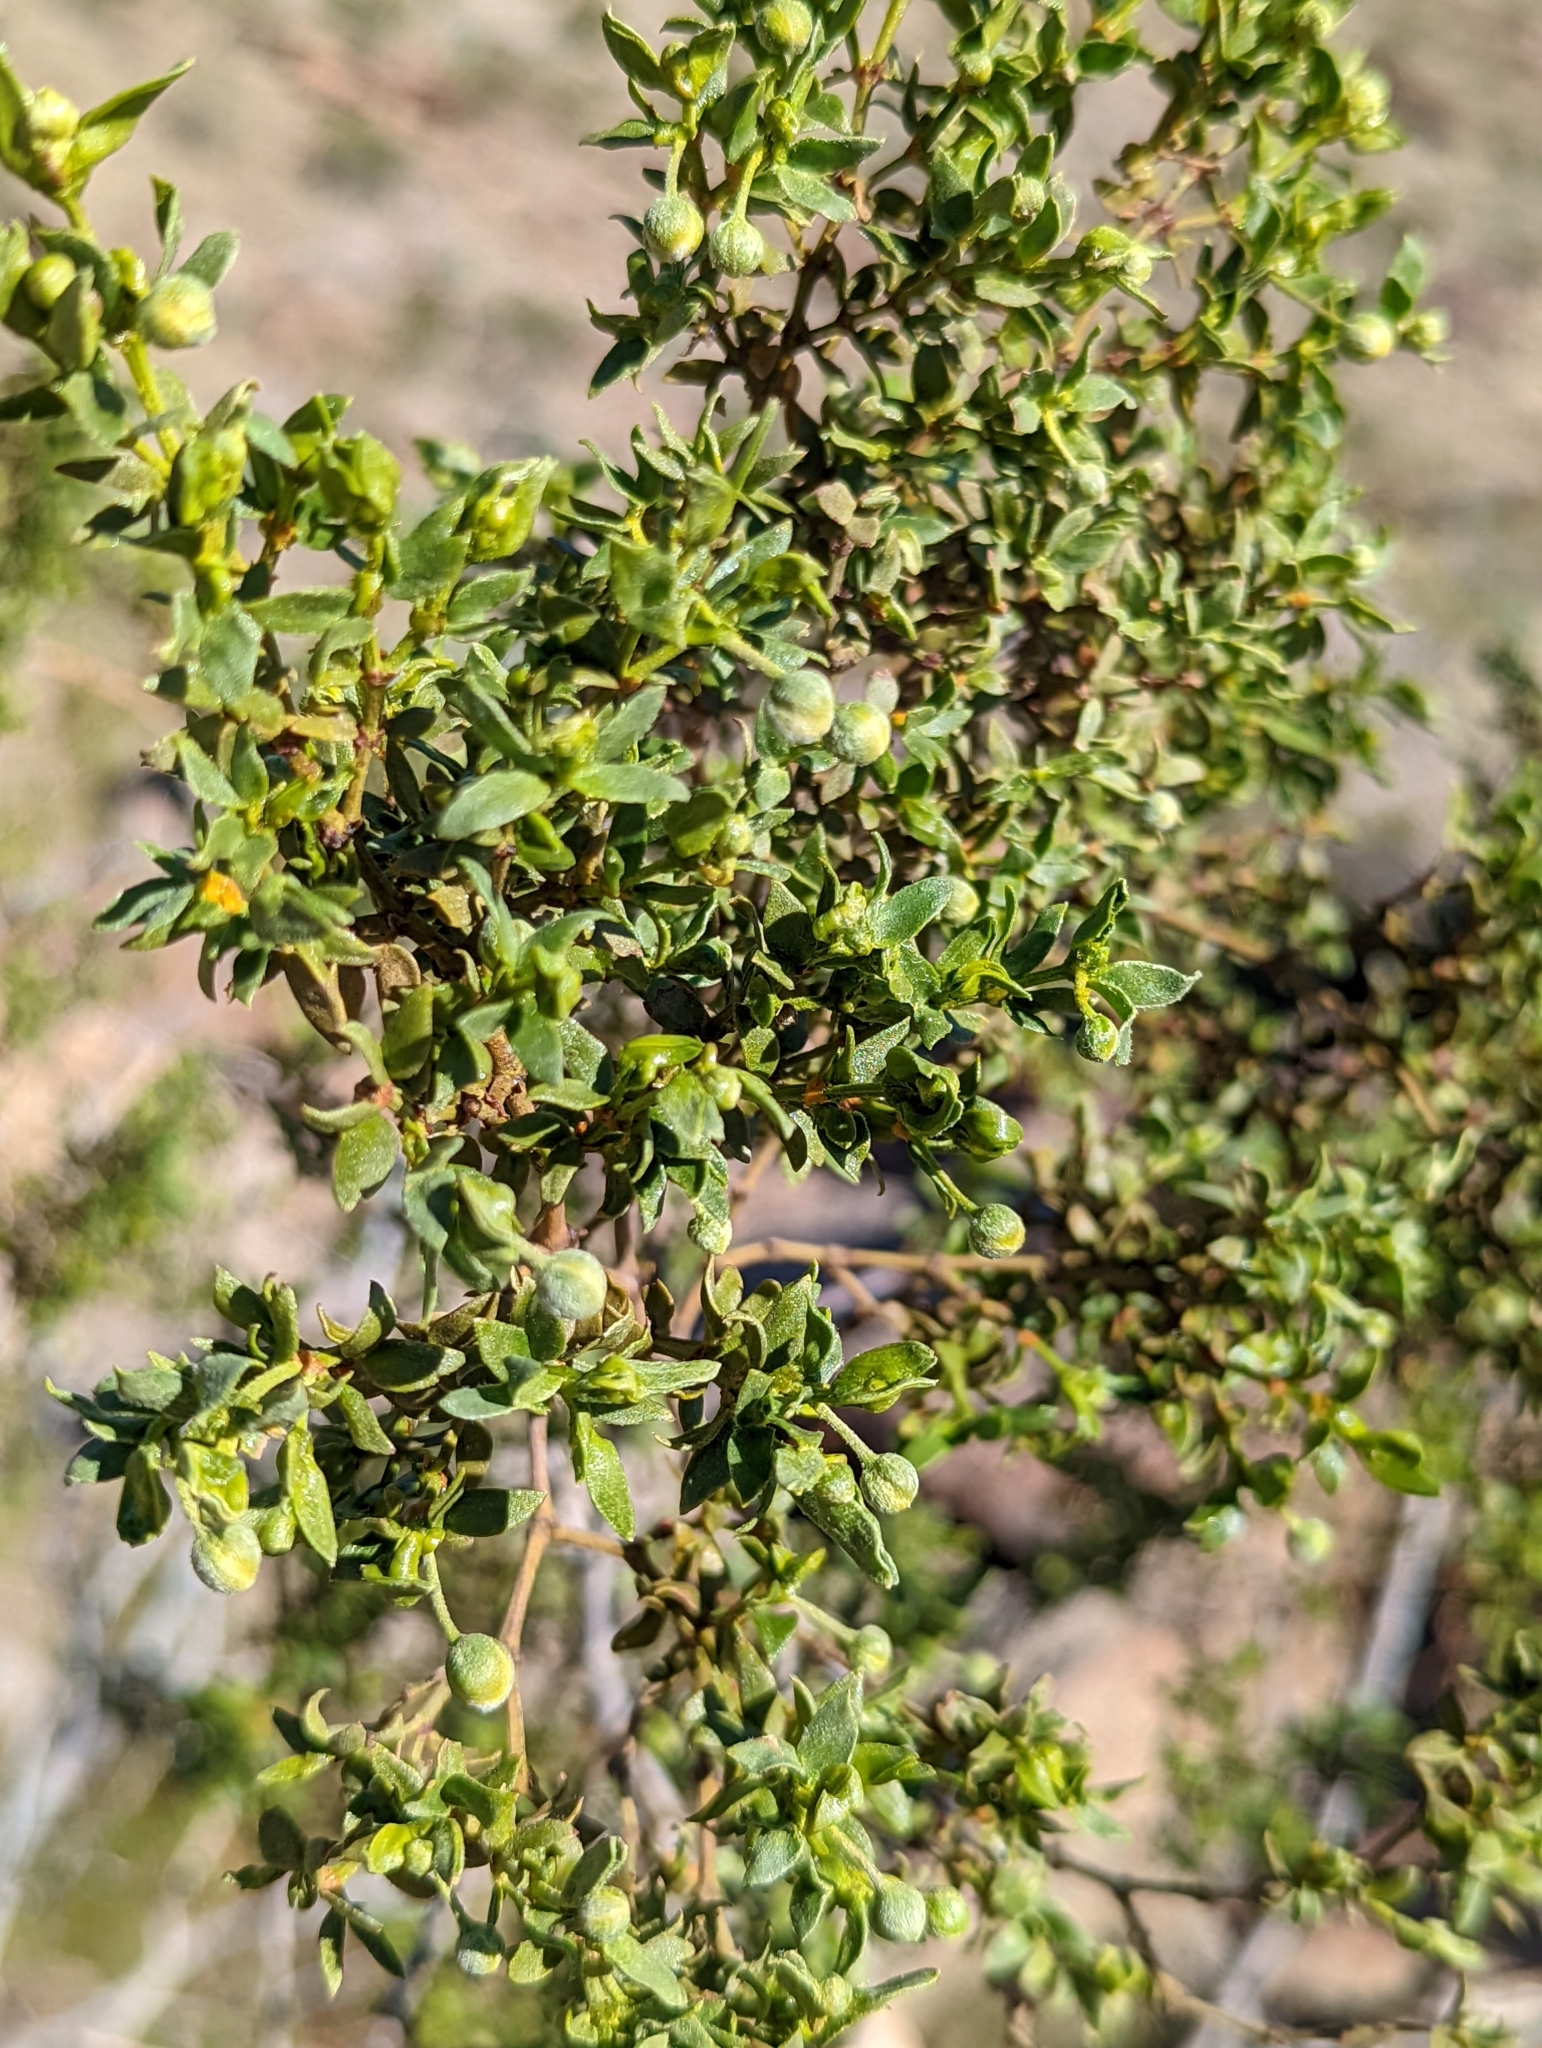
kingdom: Plantae
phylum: Tracheophyta
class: Magnoliopsida
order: Zygophyllales
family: Zygophyllaceae
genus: Larrea
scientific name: Larrea tridentata
